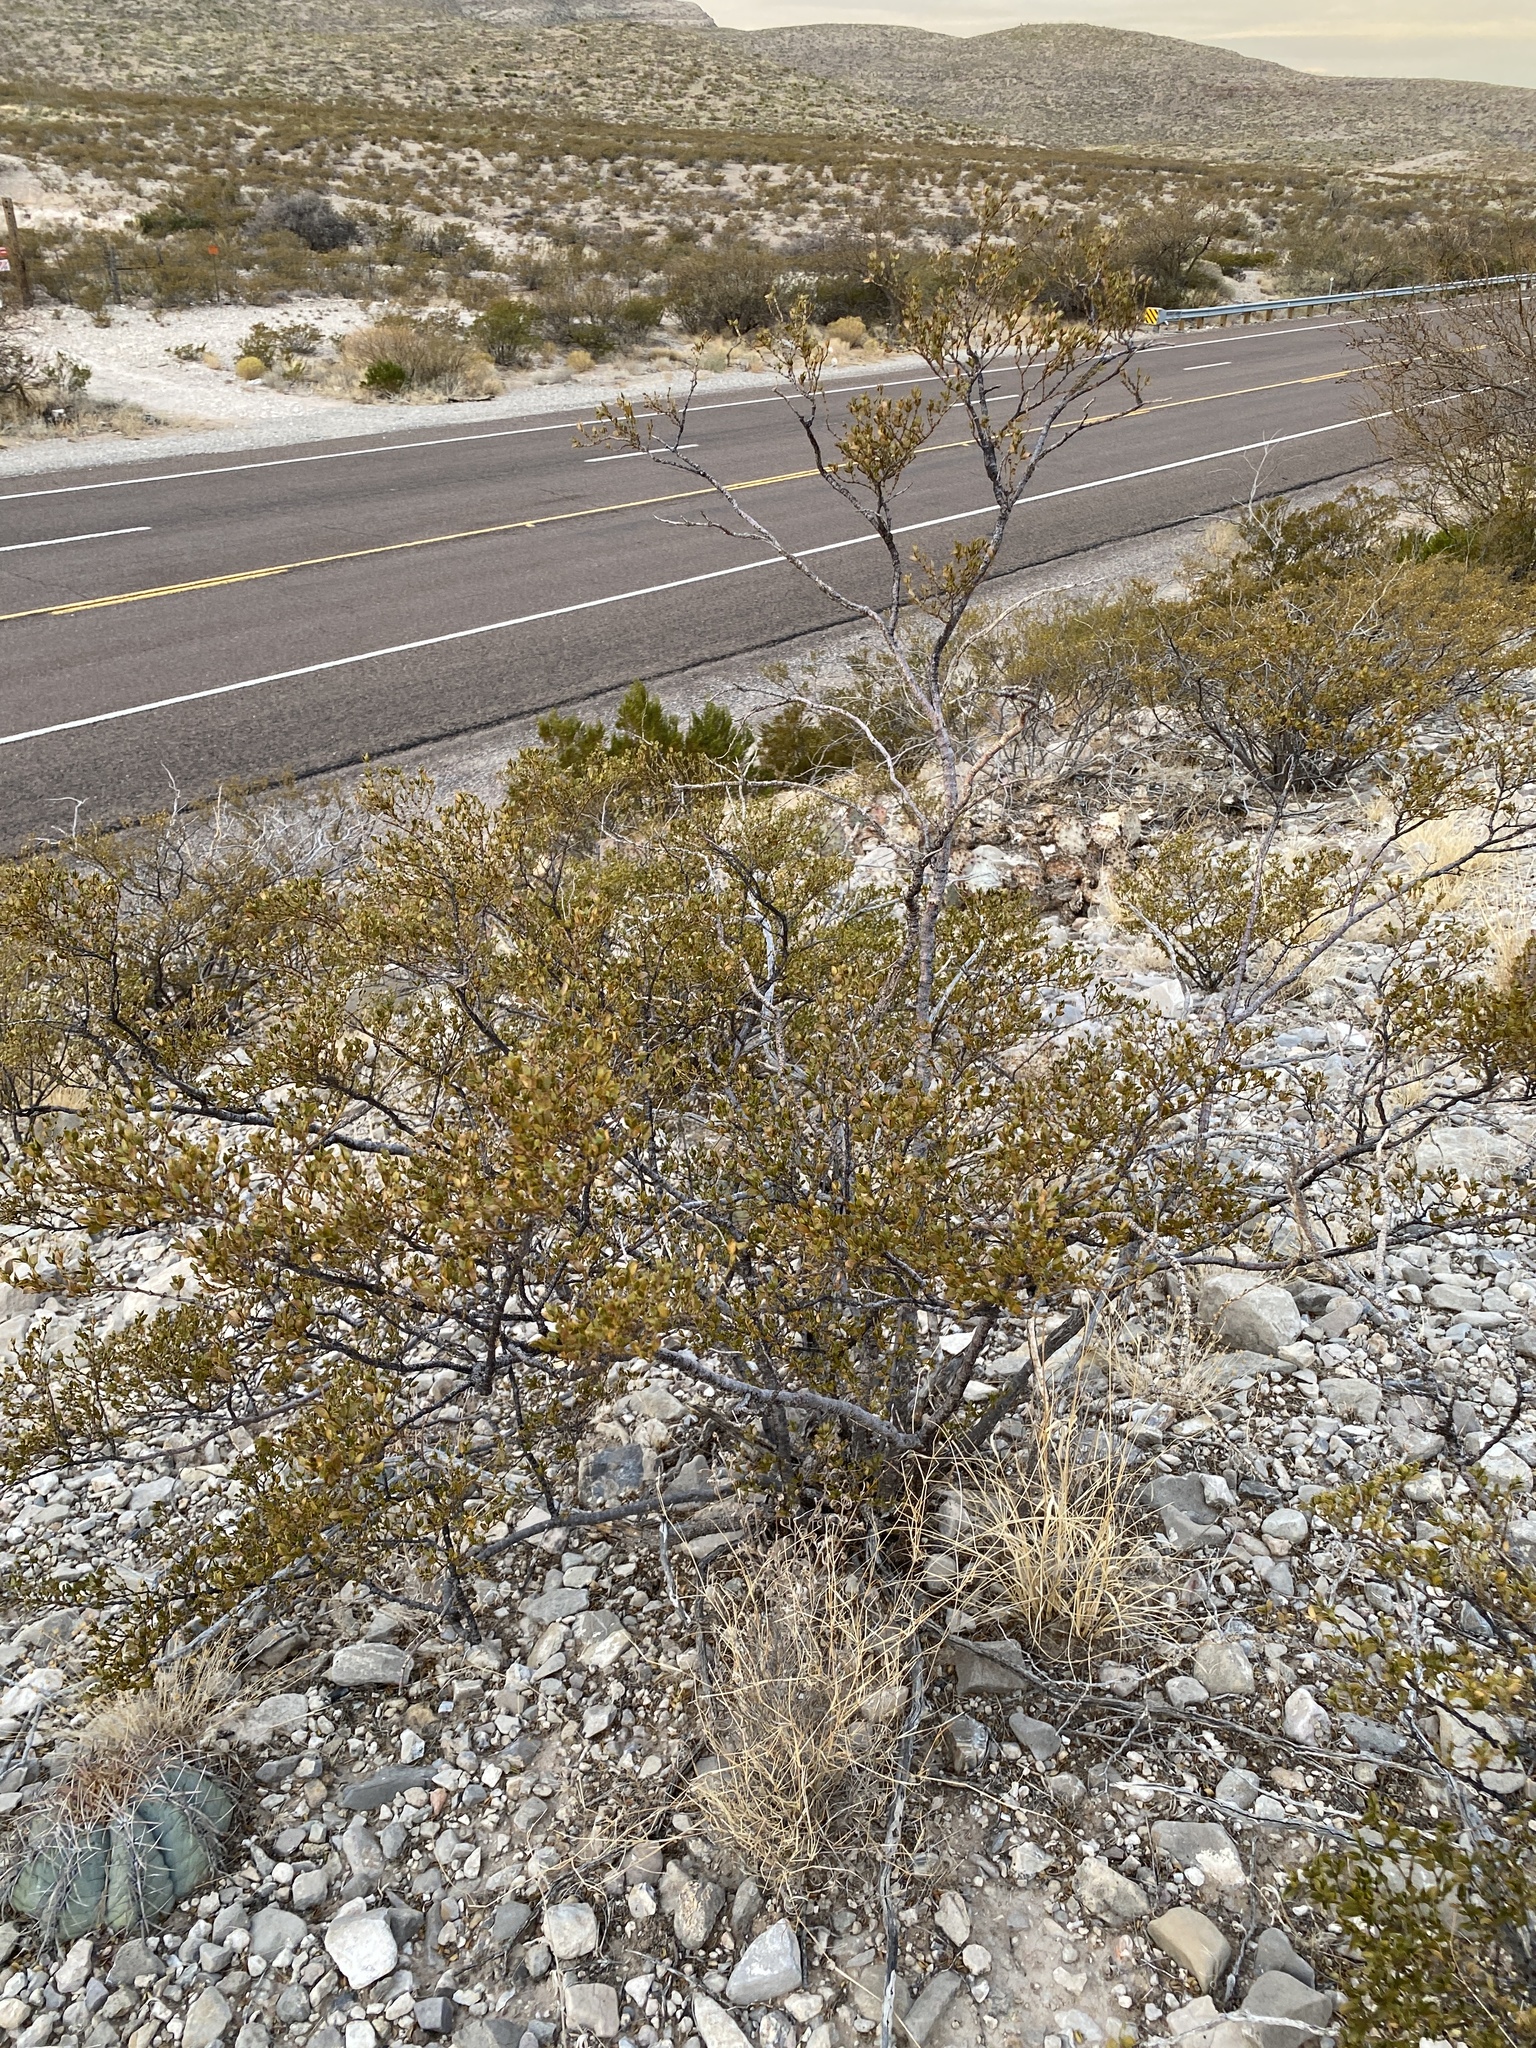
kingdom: Plantae
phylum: Tracheophyta
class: Magnoliopsida
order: Zygophyllales
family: Zygophyllaceae
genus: Larrea
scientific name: Larrea tridentata
